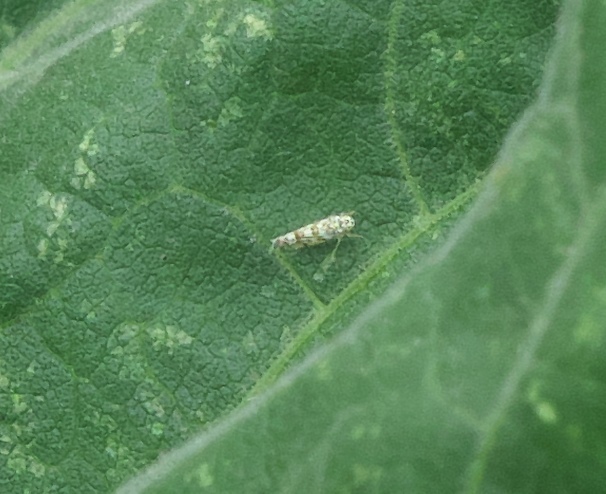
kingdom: Animalia
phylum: Arthropoda
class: Insecta
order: Hemiptera
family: Cicadellidae
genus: Eupteryx
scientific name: Eupteryx melissae
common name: Herb leafhopper
